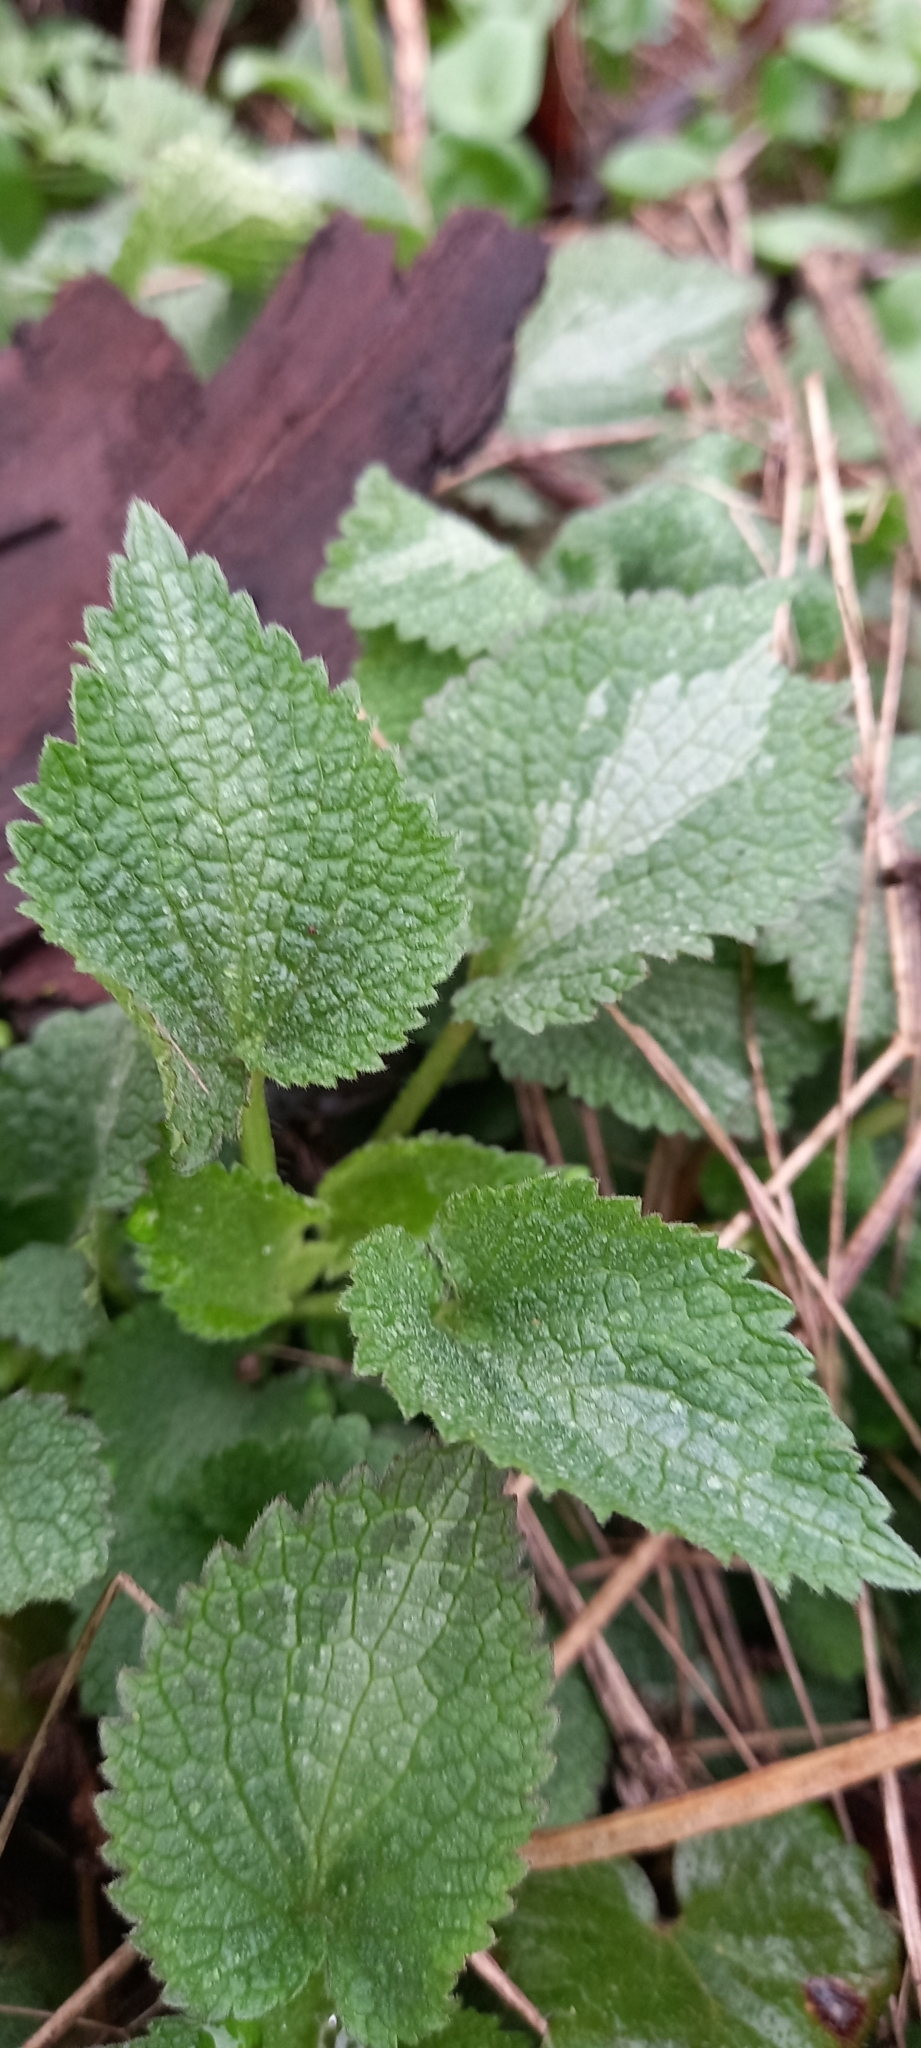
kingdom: Plantae
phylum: Tracheophyta
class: Magnoliopsida
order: Lamiales
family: Lamiaceae
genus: Lamium
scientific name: Lamium maculatum
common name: Spotted dead-nettle
